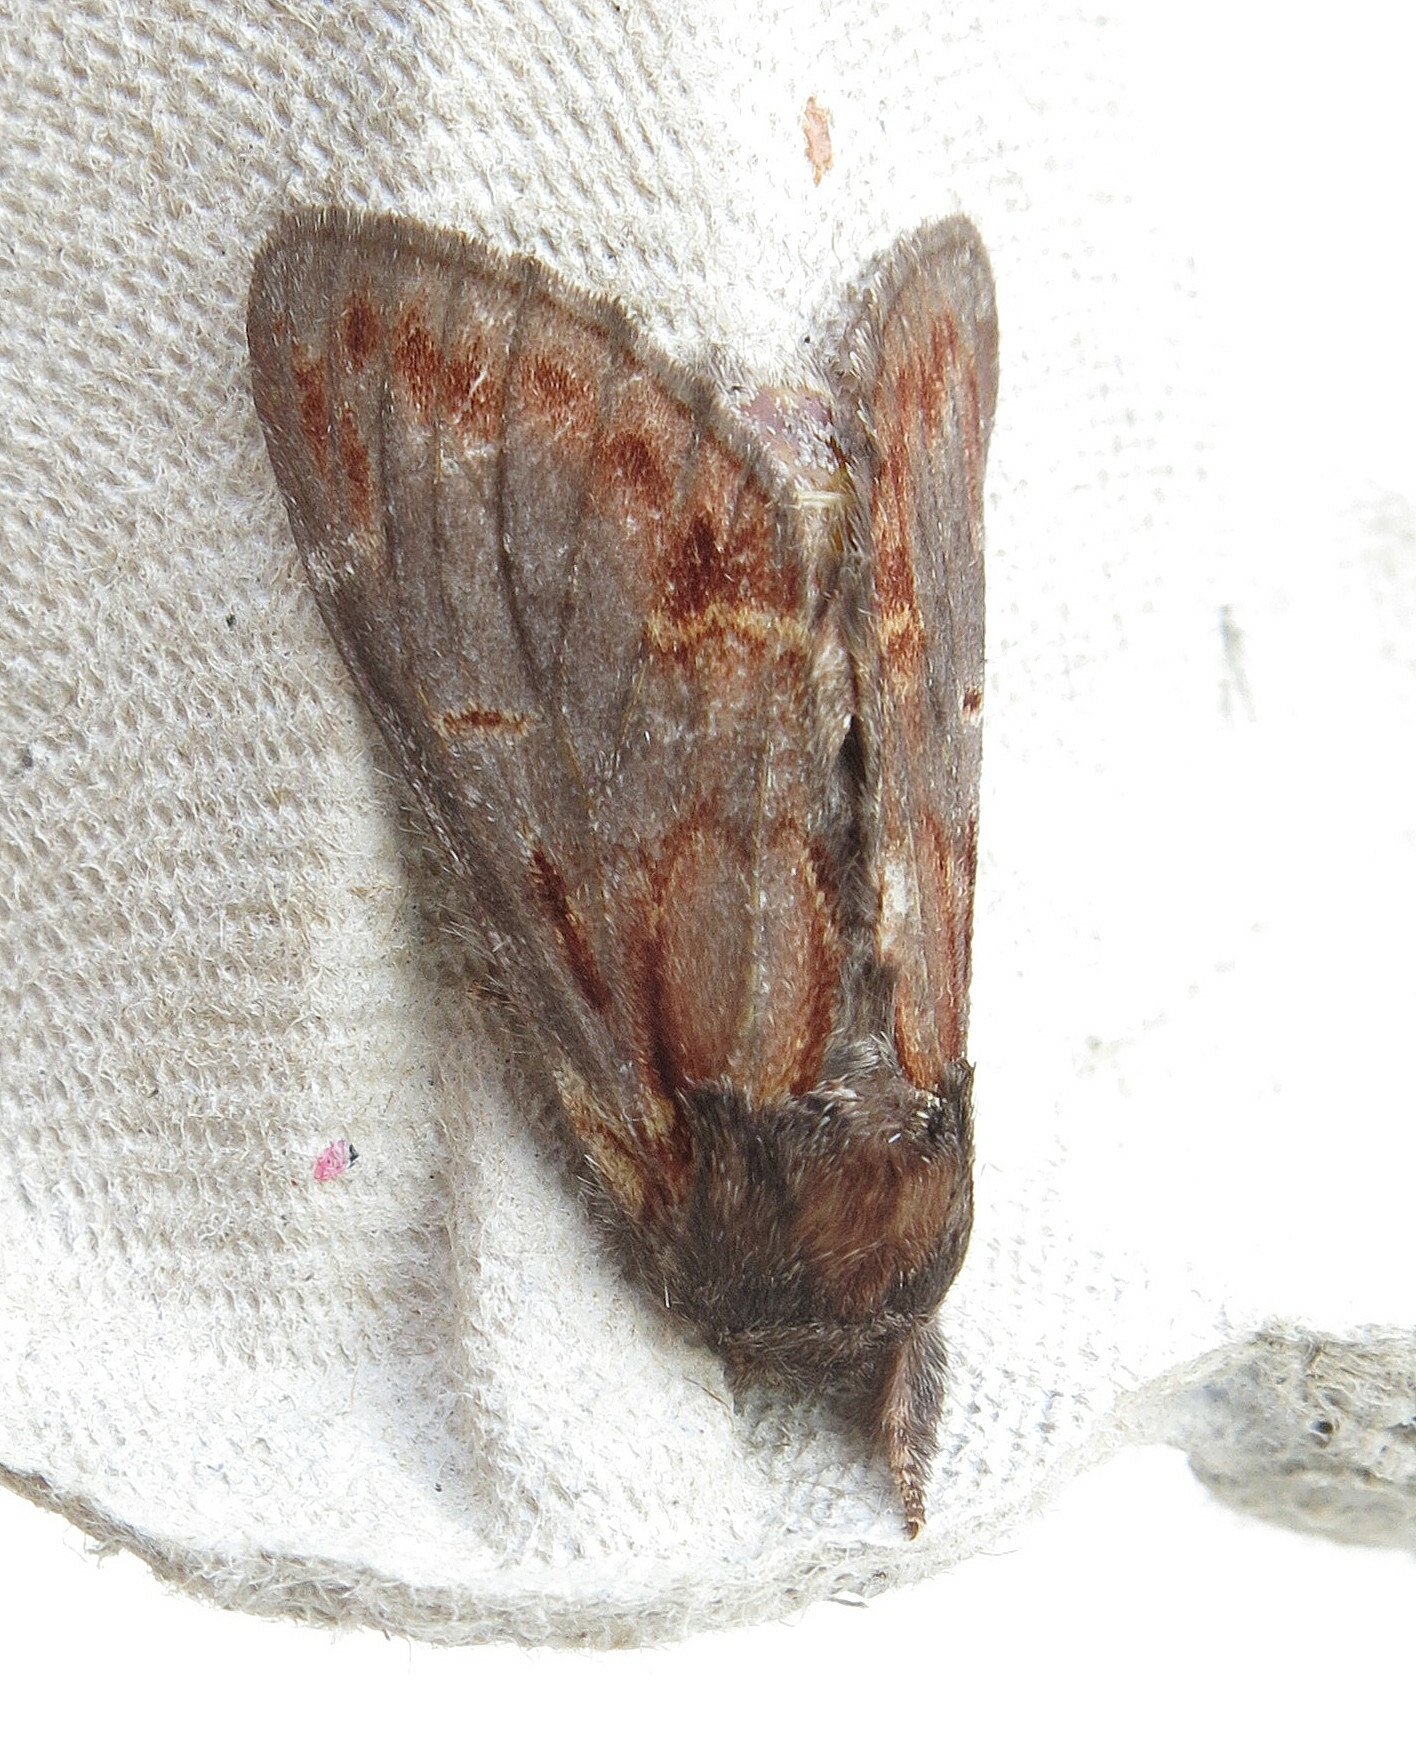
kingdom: Animalia
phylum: Arthropoda
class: Insecta
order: Lepidoptera
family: Notodontidae
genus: Notodonta
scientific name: Notodonta dromedarius
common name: Iron prominent
